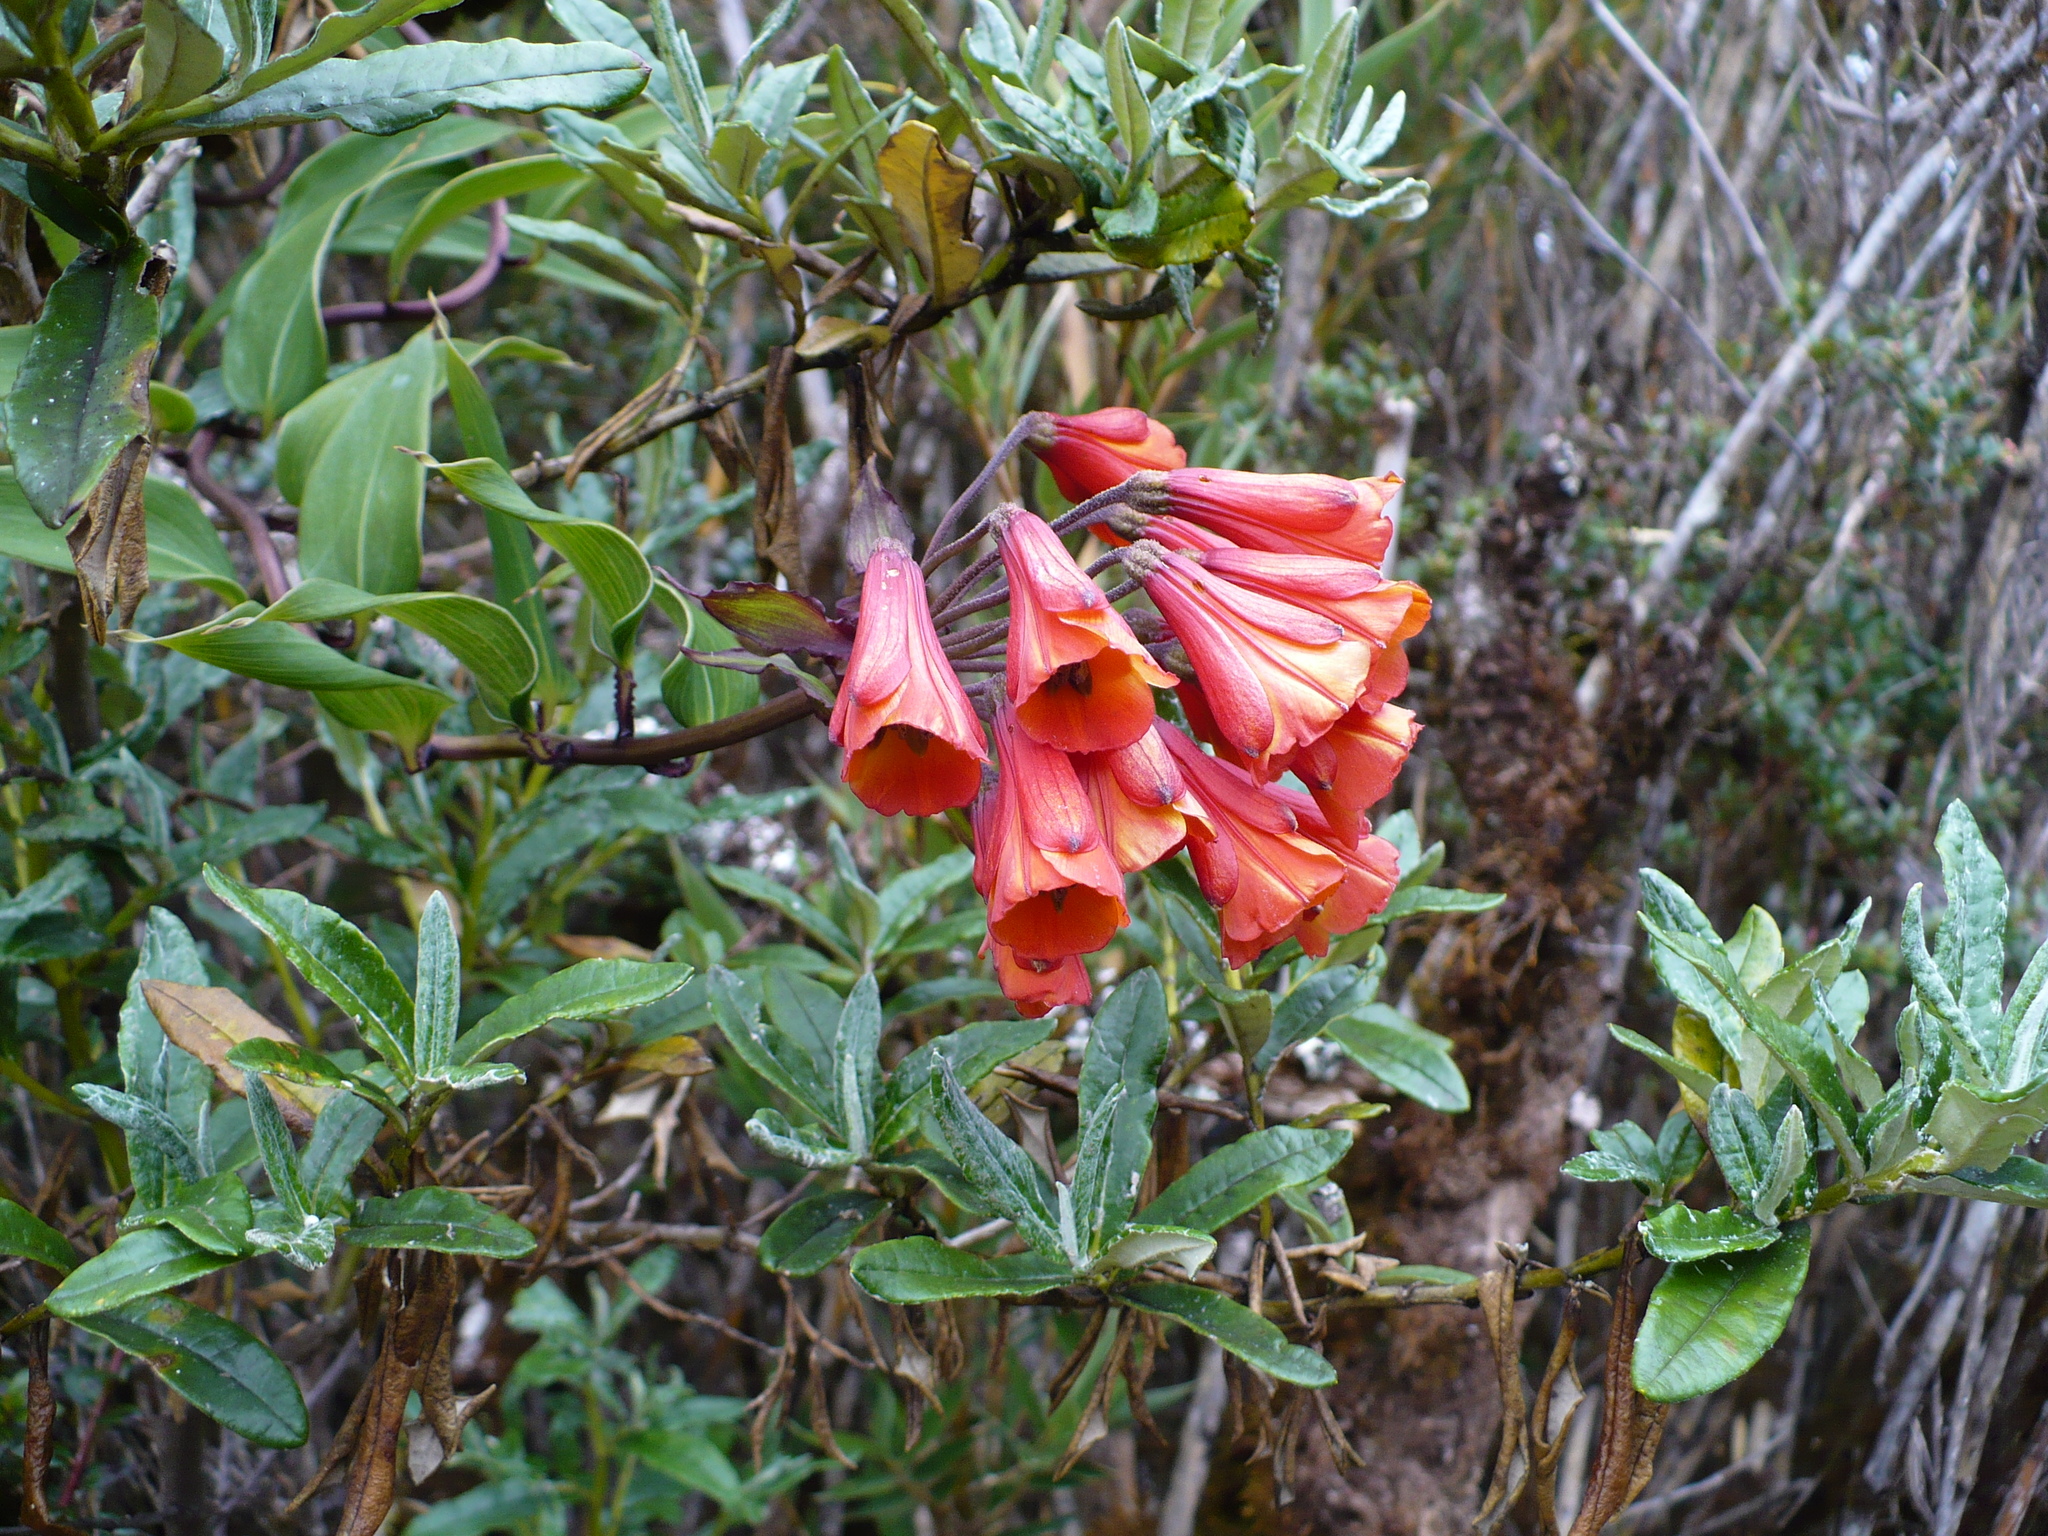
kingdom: Plantae
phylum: Tracheophyta
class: Liliopsida
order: Liliales
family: Alstroemeriaceae
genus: Bomarea
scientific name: Bomarea acutifolia
